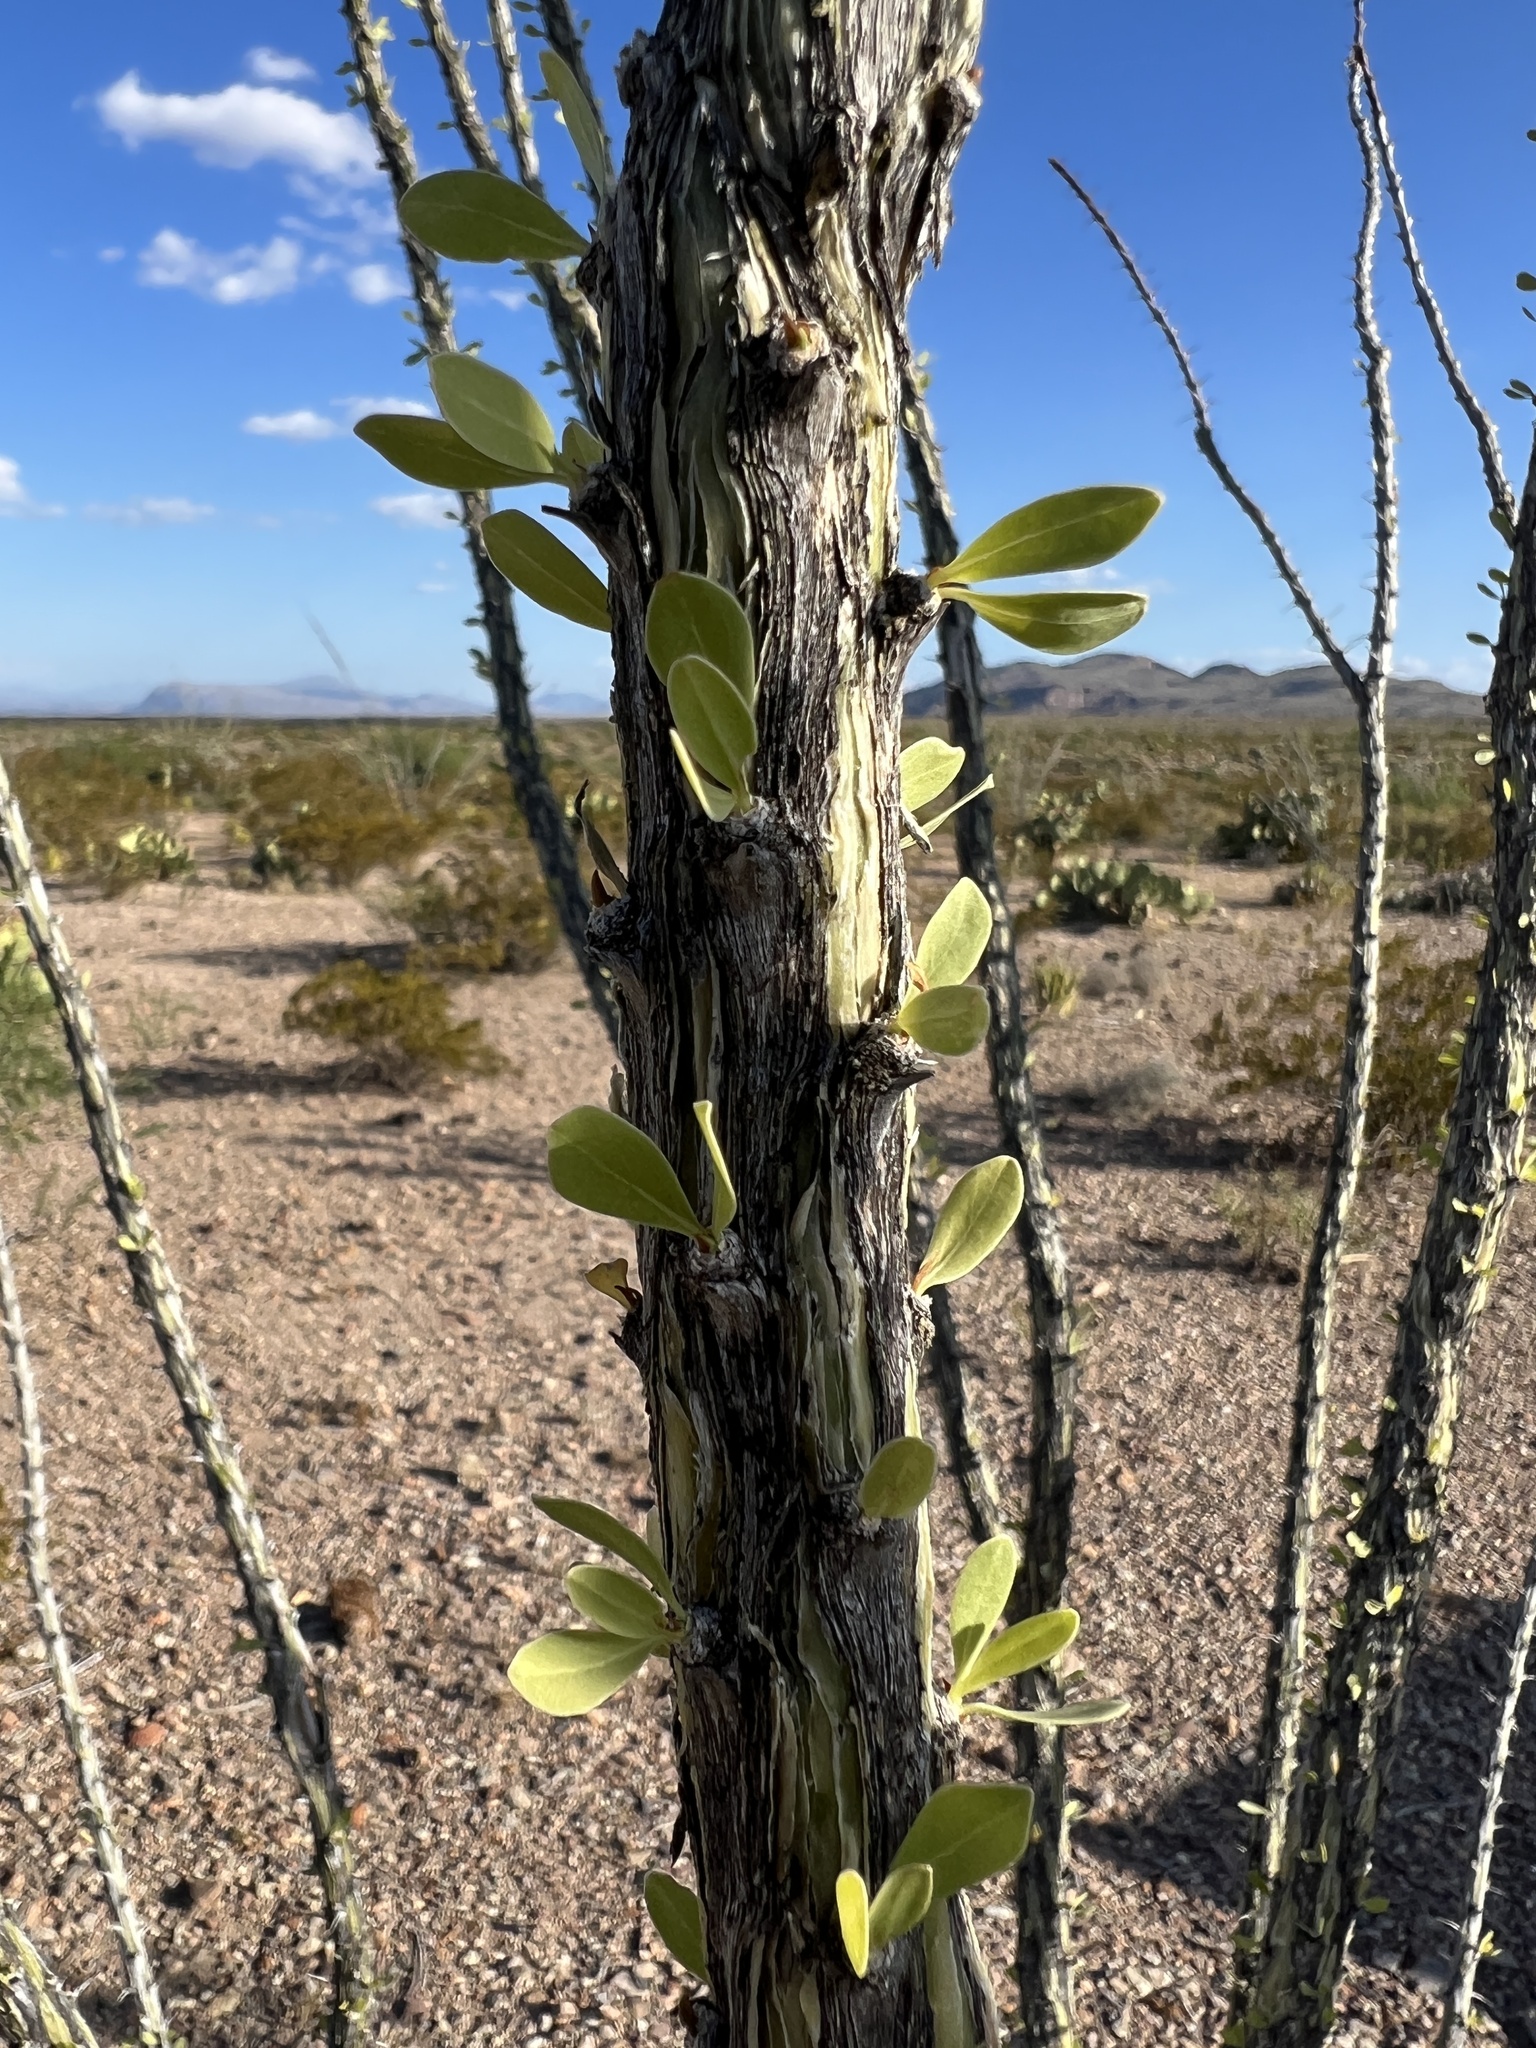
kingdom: Plantae
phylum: Tracheophyta
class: Magnoliopsida
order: Ericales
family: Fouquieriaceae
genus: Fouquieria
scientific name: Fouquieria splendens
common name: Vine-cactus
